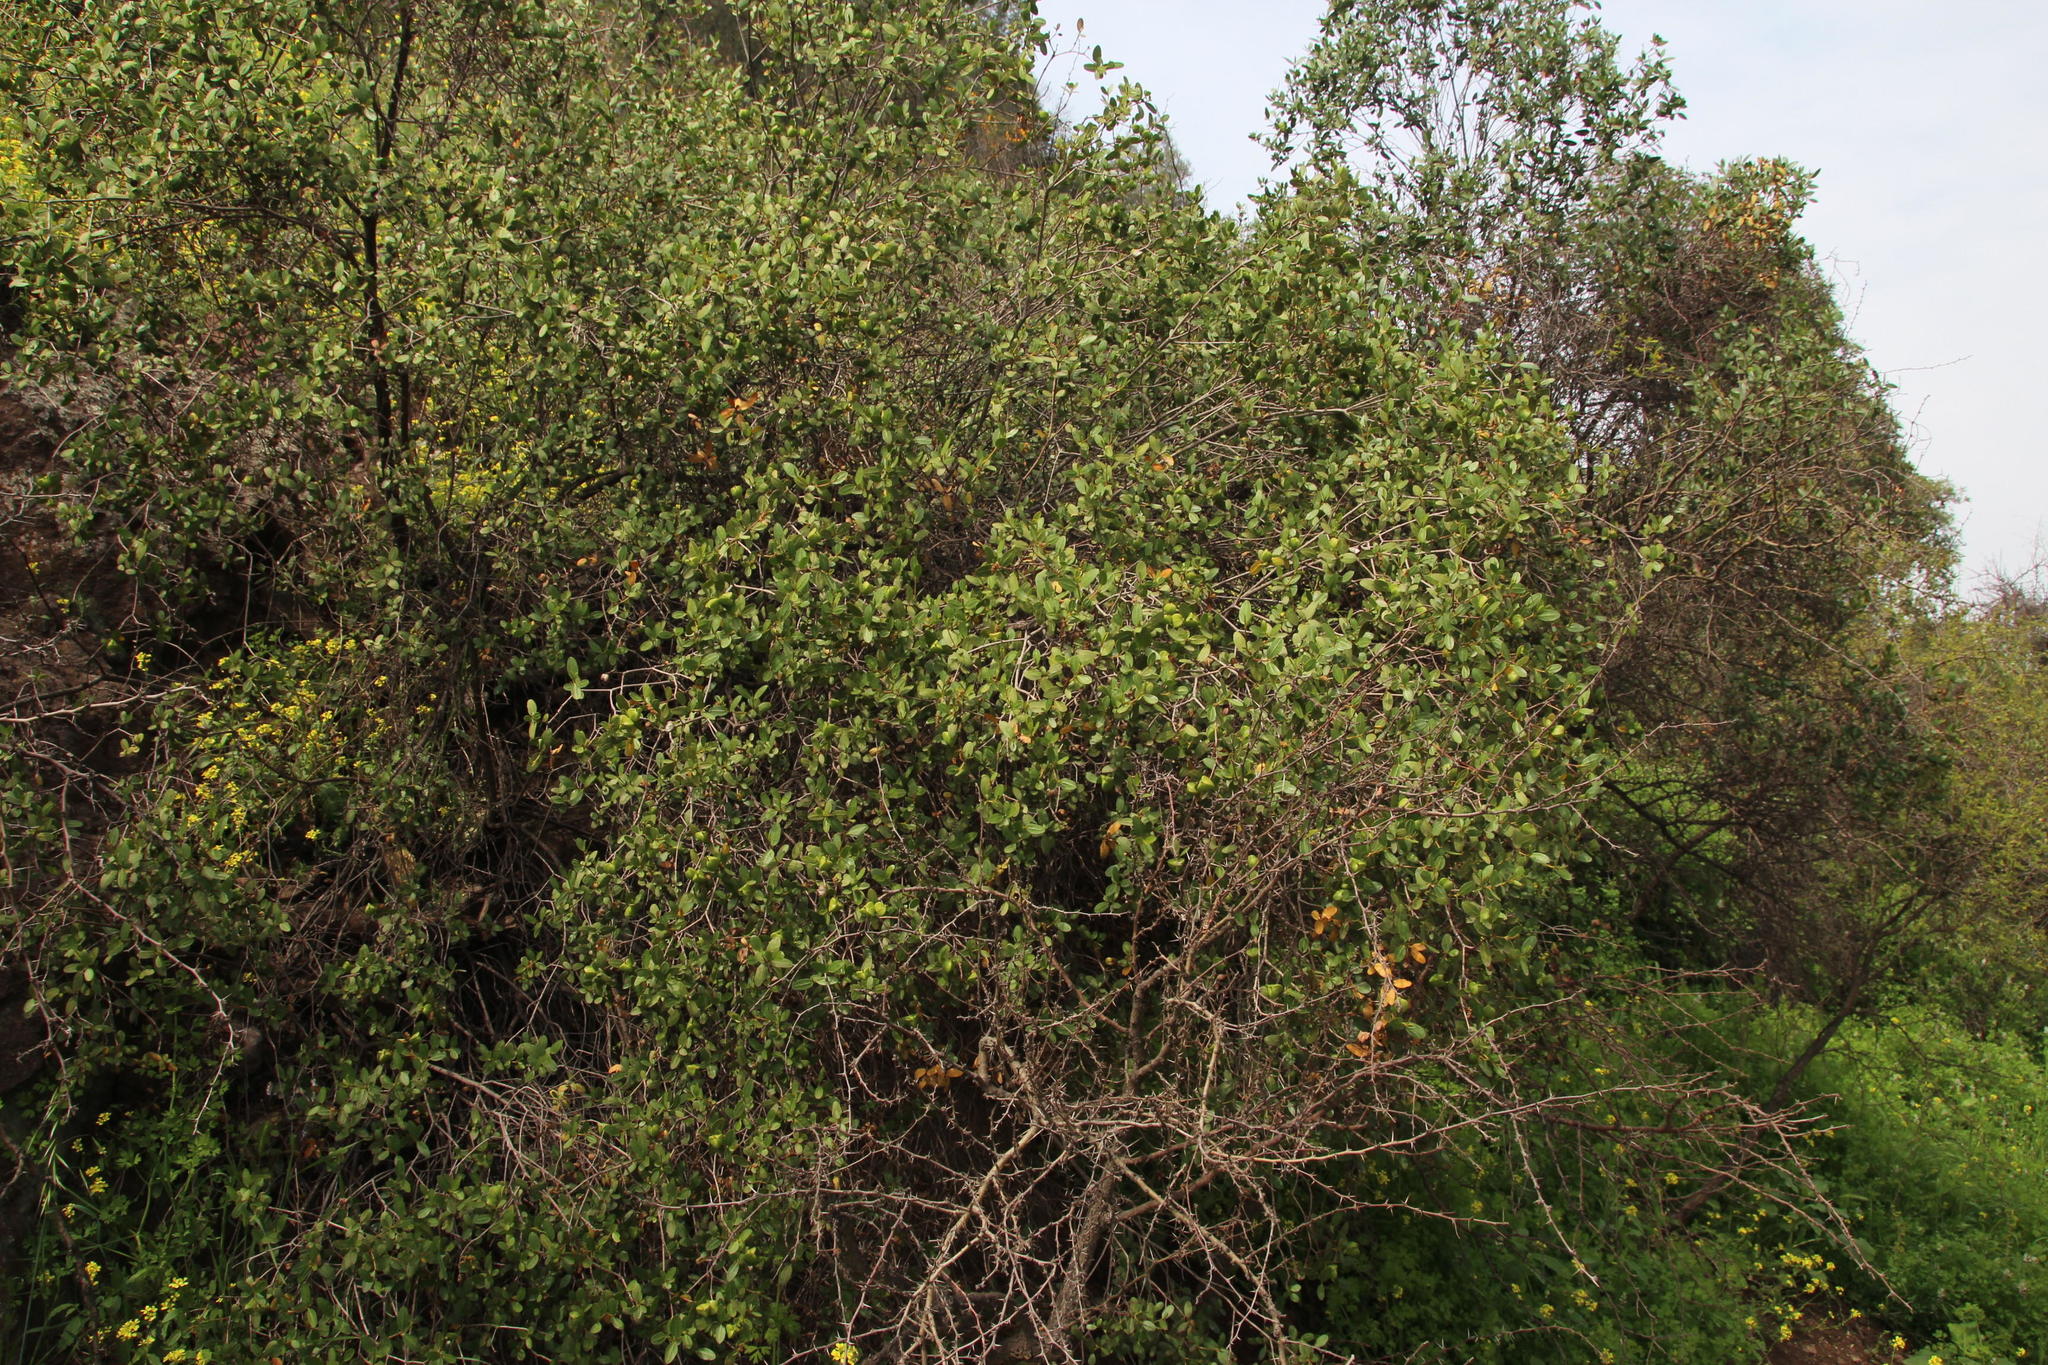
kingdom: Plantae
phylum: Tracheophyta
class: Magnoliopsida
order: Malpighiales
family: Euphorbiaceae
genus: Colliguaja
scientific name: Colliguaja odorifera
